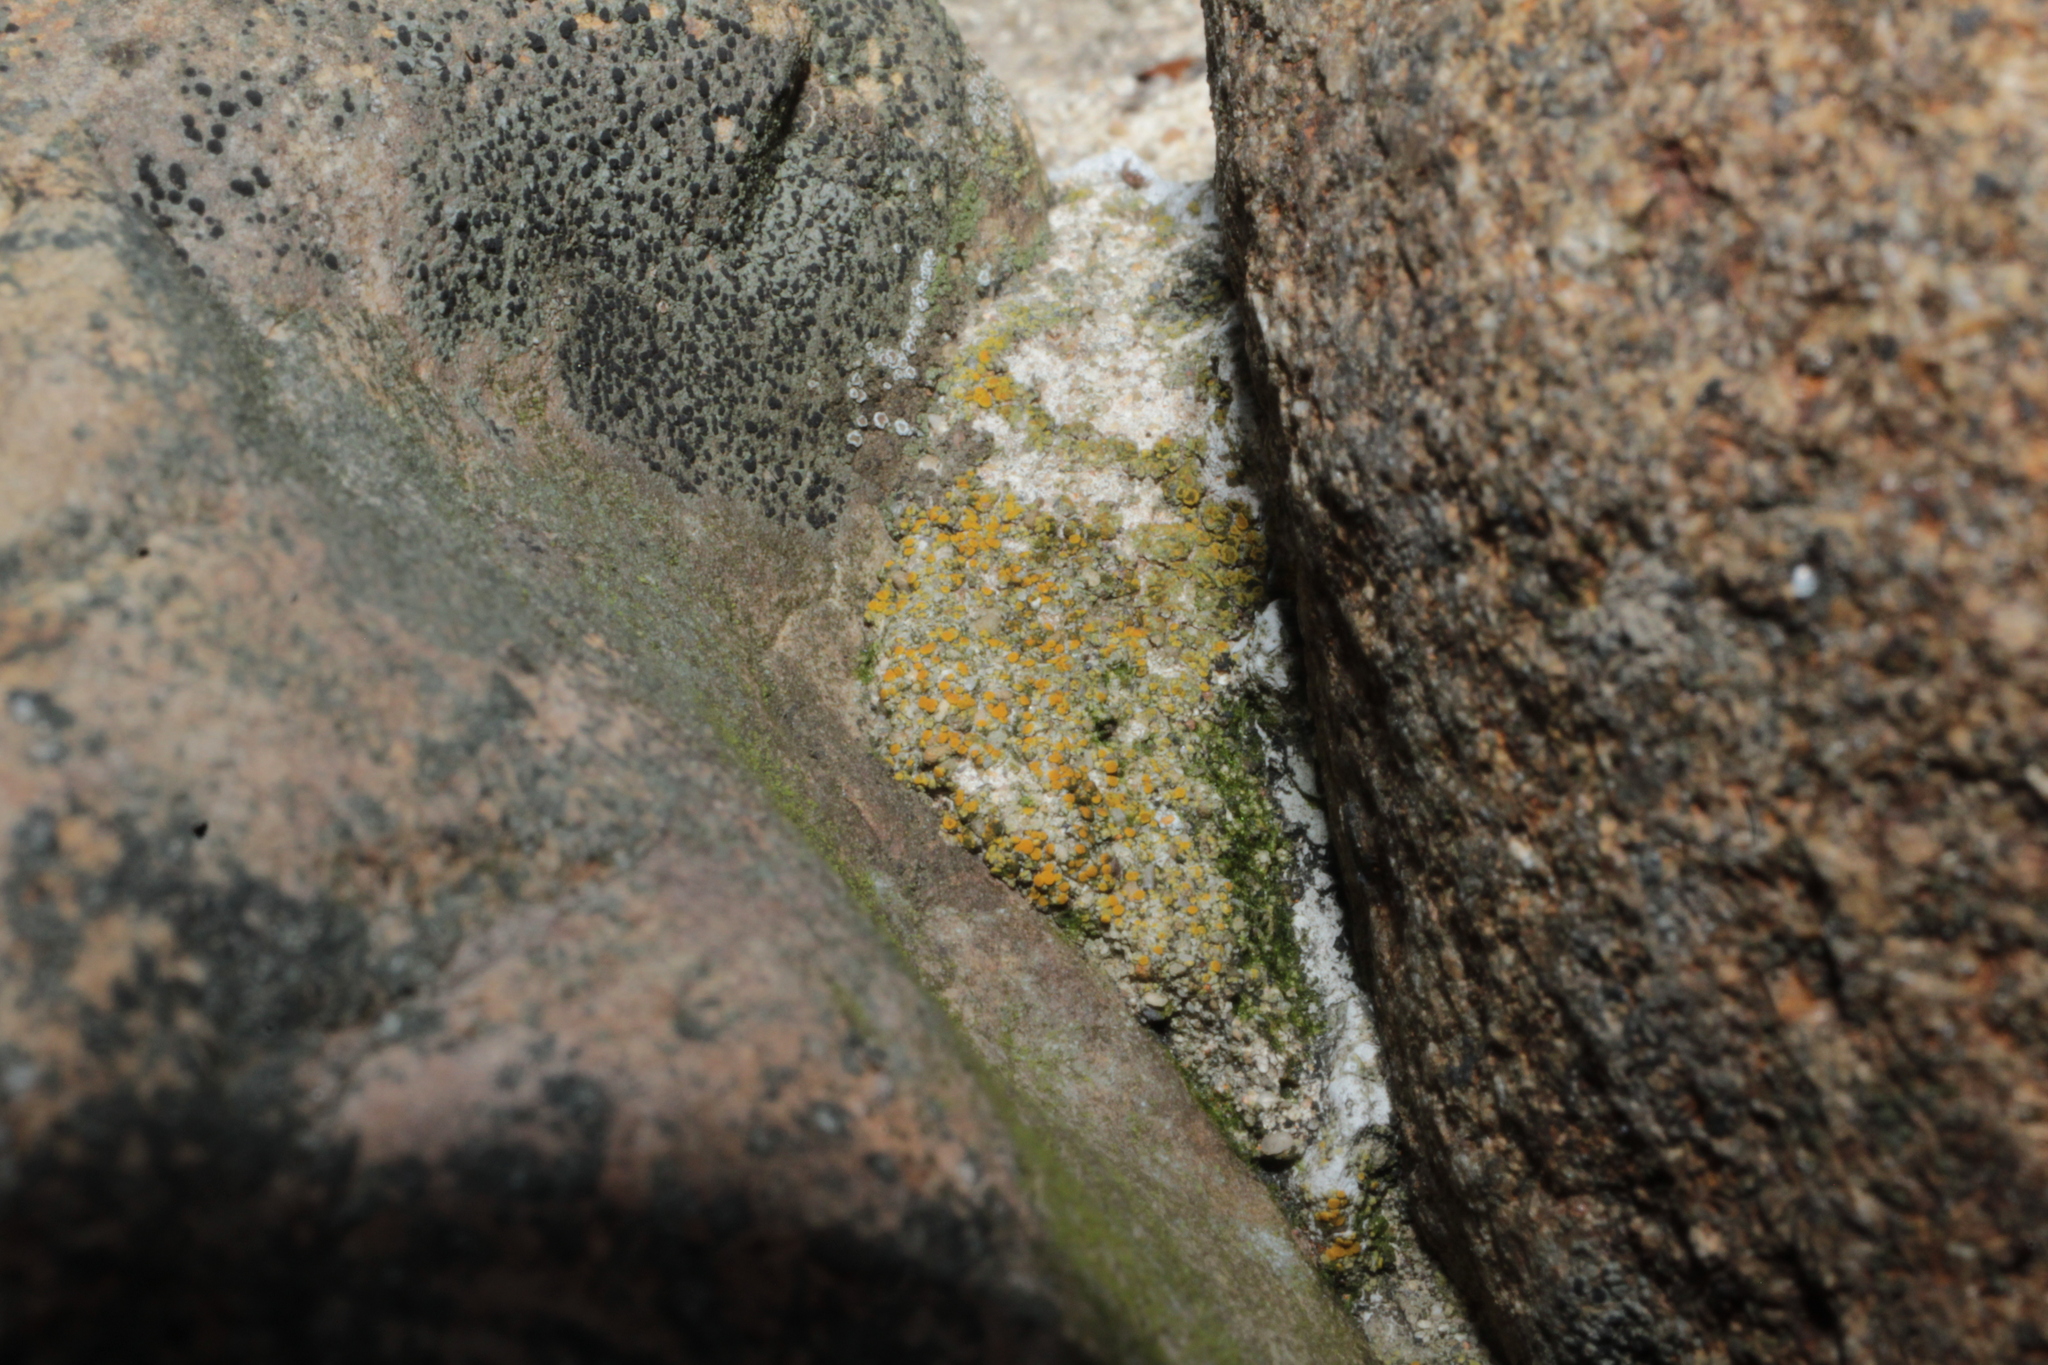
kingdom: Fungi
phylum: Ascomycota
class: Lecanoromycetes
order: Teloschistales
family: Teloschistaceae
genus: Gyalolechia
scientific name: Gyalolechia flavovirescens
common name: Sulphur firedot
